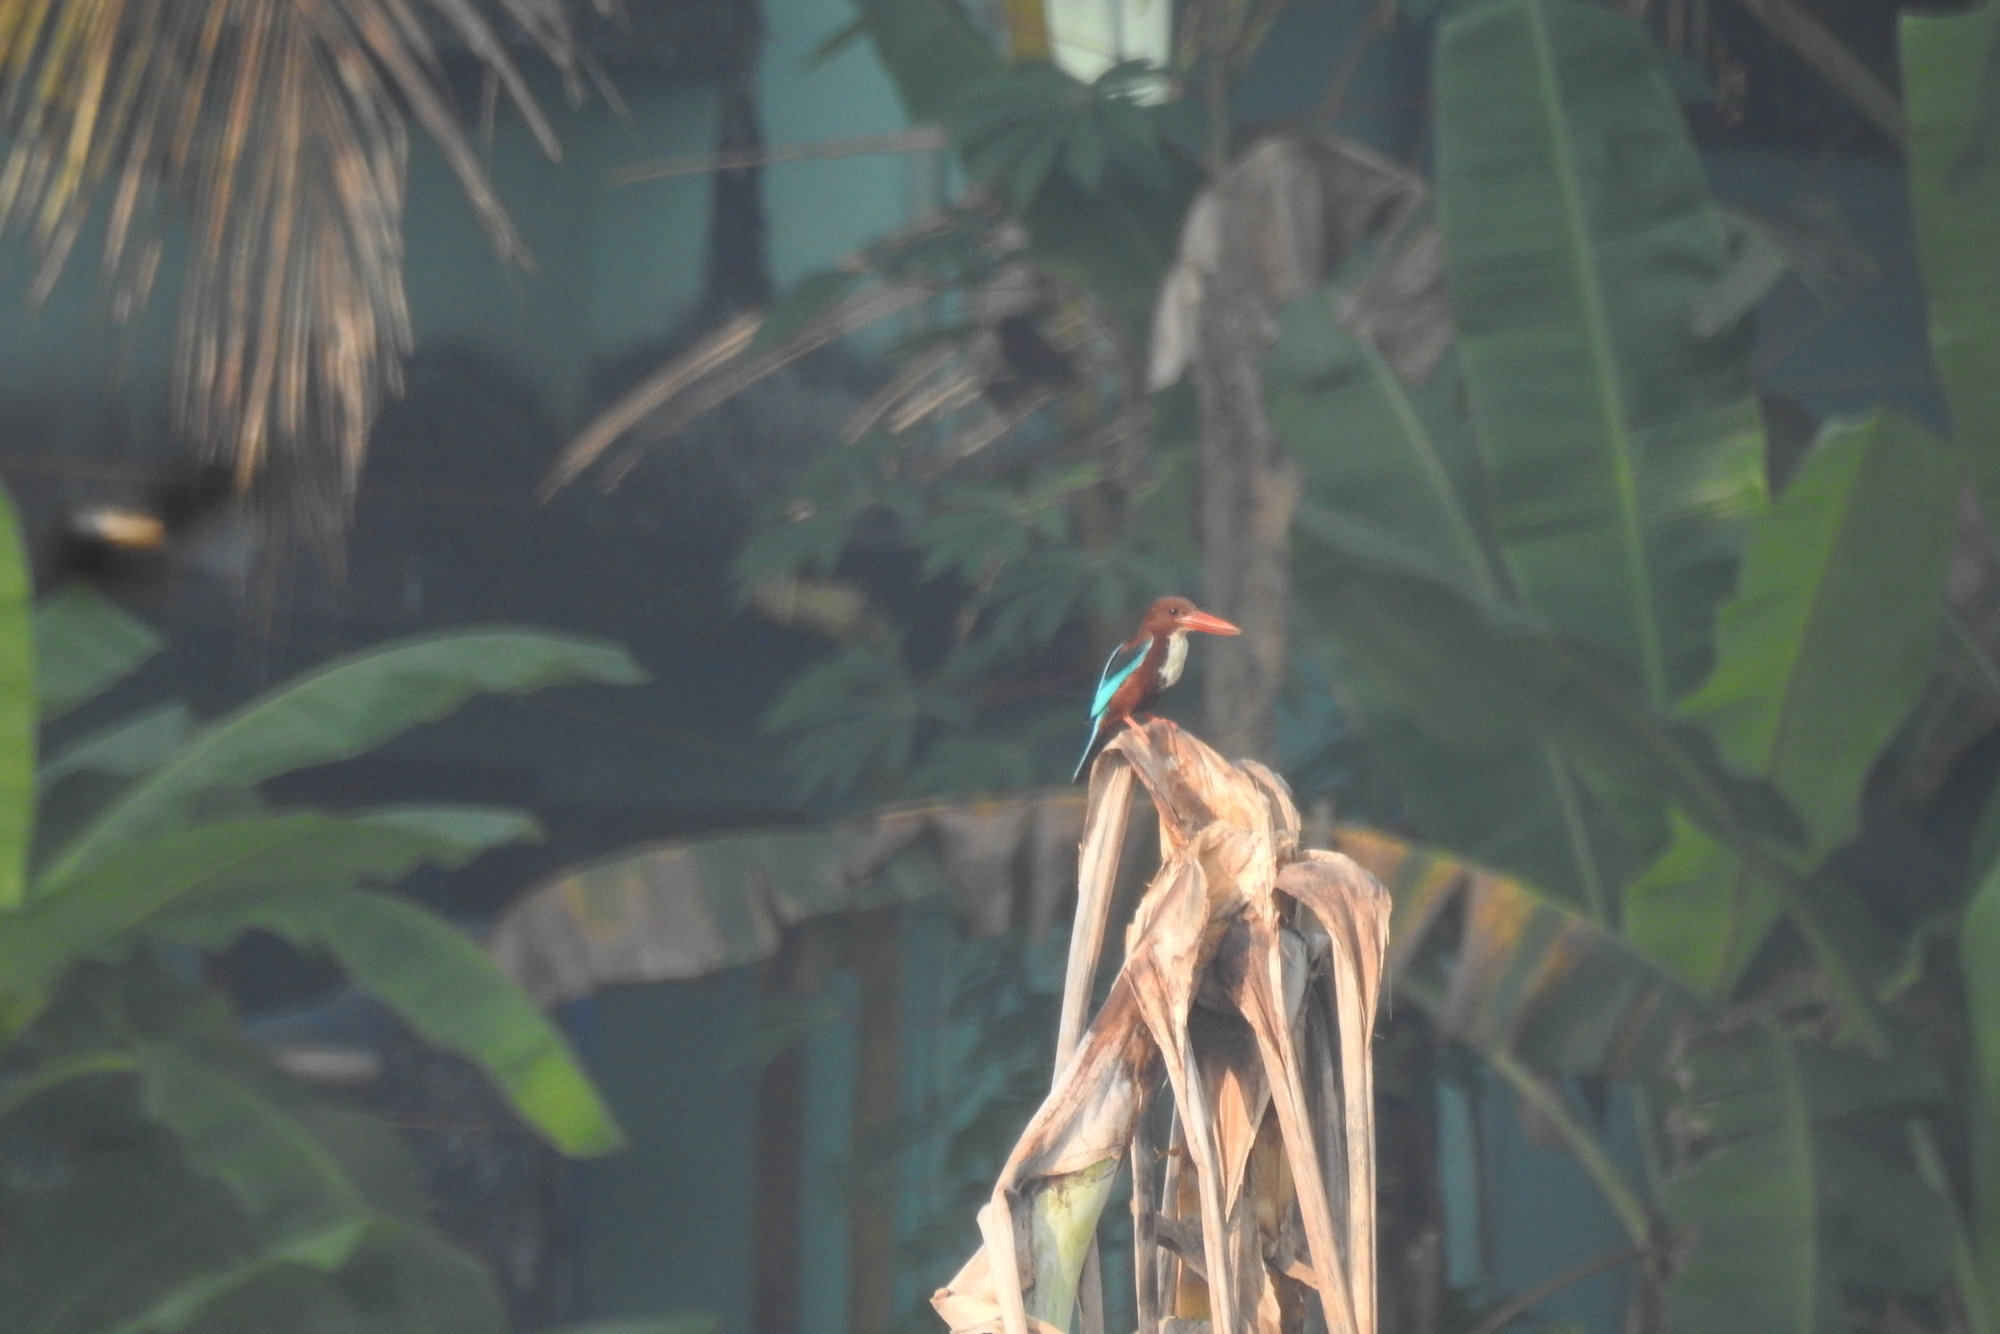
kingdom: Animalia
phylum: Chordata
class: Aves
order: Coraciiformes
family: Alcedinidae
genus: Halcyon
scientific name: Halcyon smyrnensis
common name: White-throated kingfisher
